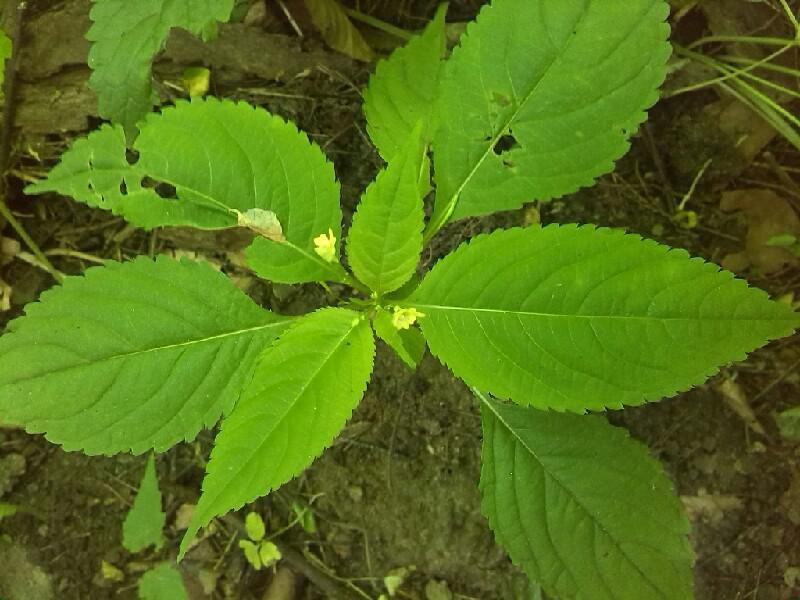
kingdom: Plantae
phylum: Tracheophyta
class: Magnoliopsida
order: Ericales
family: Balsaminaceae
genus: Impatiens
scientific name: Impatiens parviflora
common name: Small balsam
